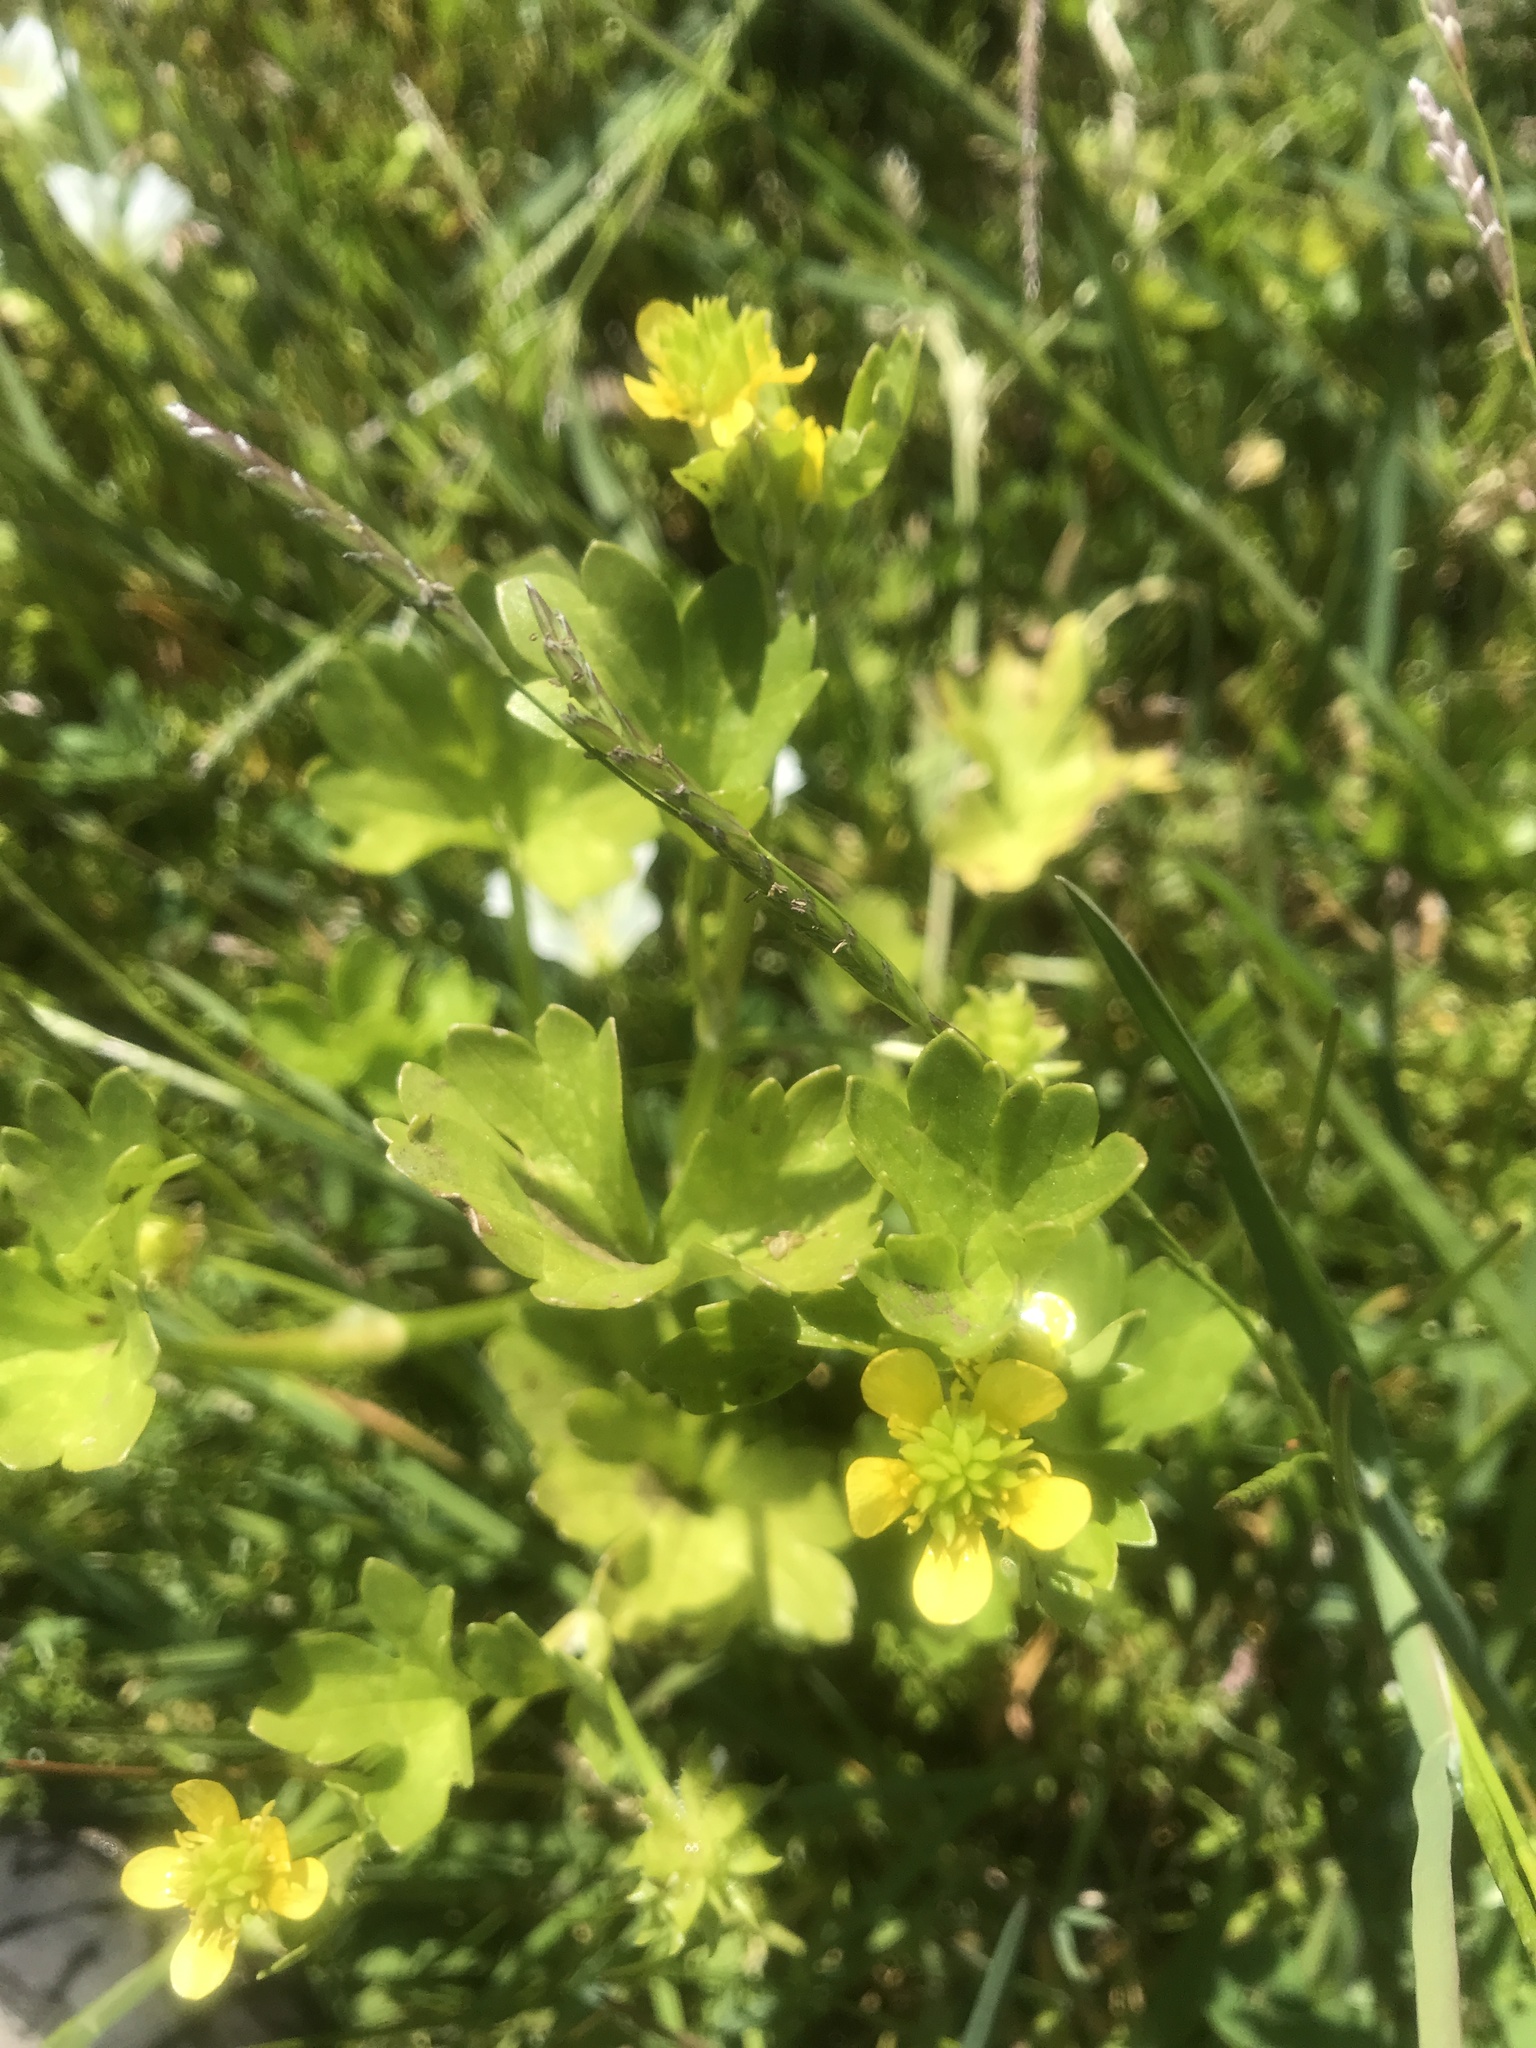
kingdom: Plantae
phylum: Tracheophyta
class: Magnoliopsida
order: Ranunculales
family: Ranunculaceae
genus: Ranunculus
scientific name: Ranunculus muricatus
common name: Rough-fruited buttercup
